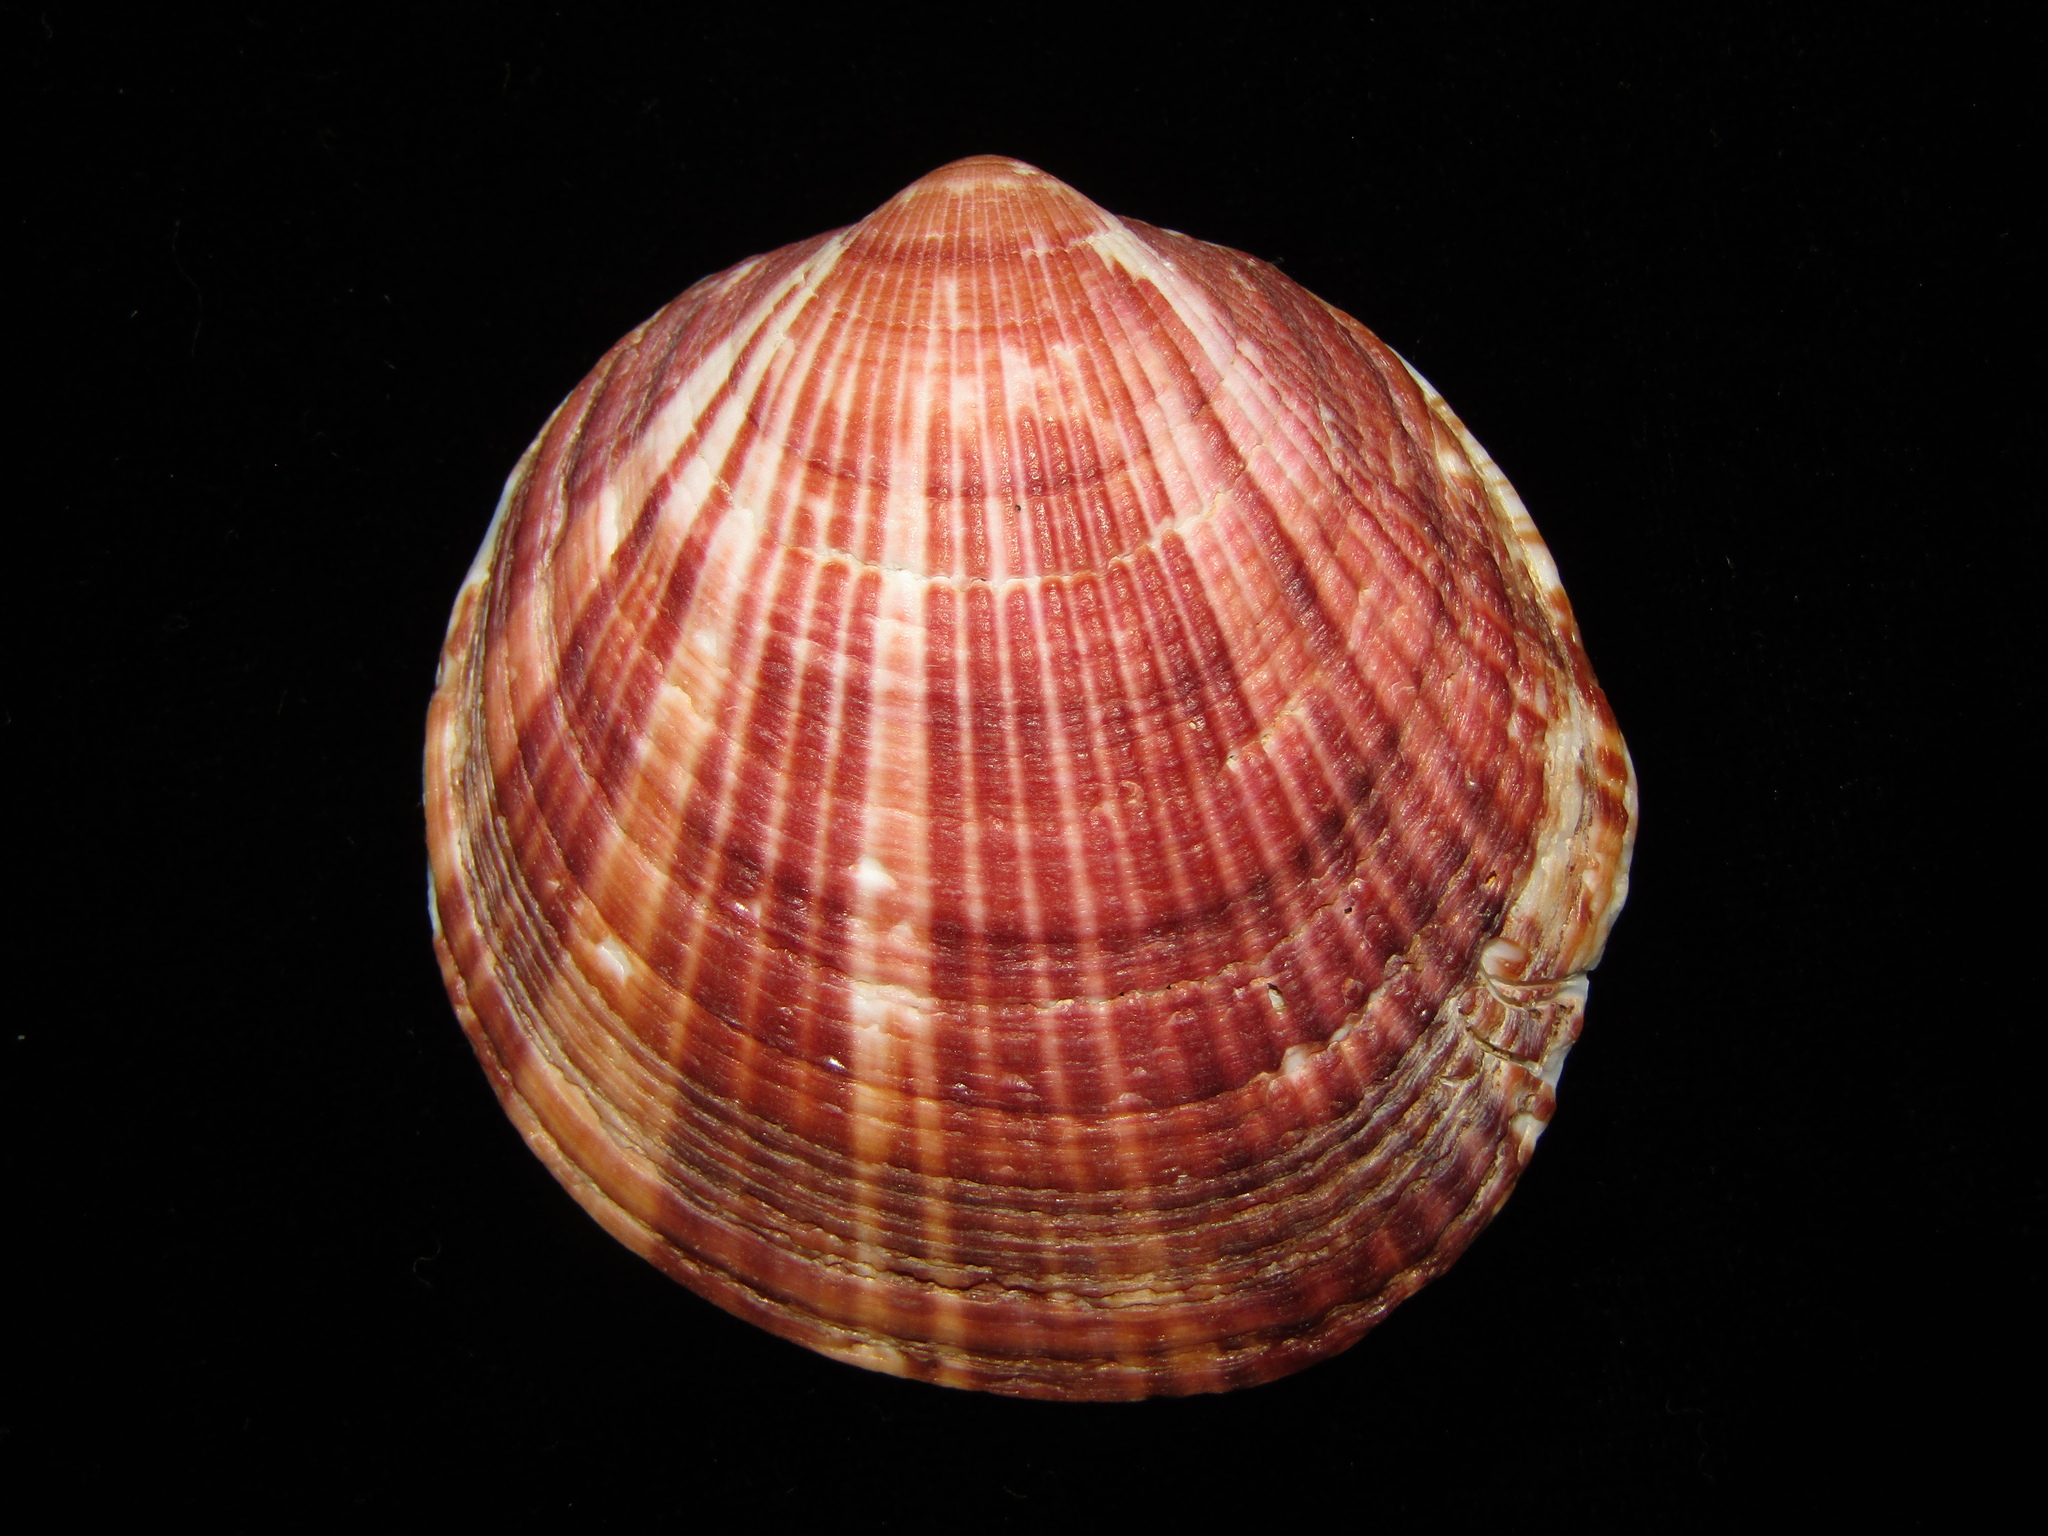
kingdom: Animalia
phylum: Mollusca
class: Bivalvia
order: Arcida
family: Glycymerididae
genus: Tucetona
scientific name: Tucetona laticostata
